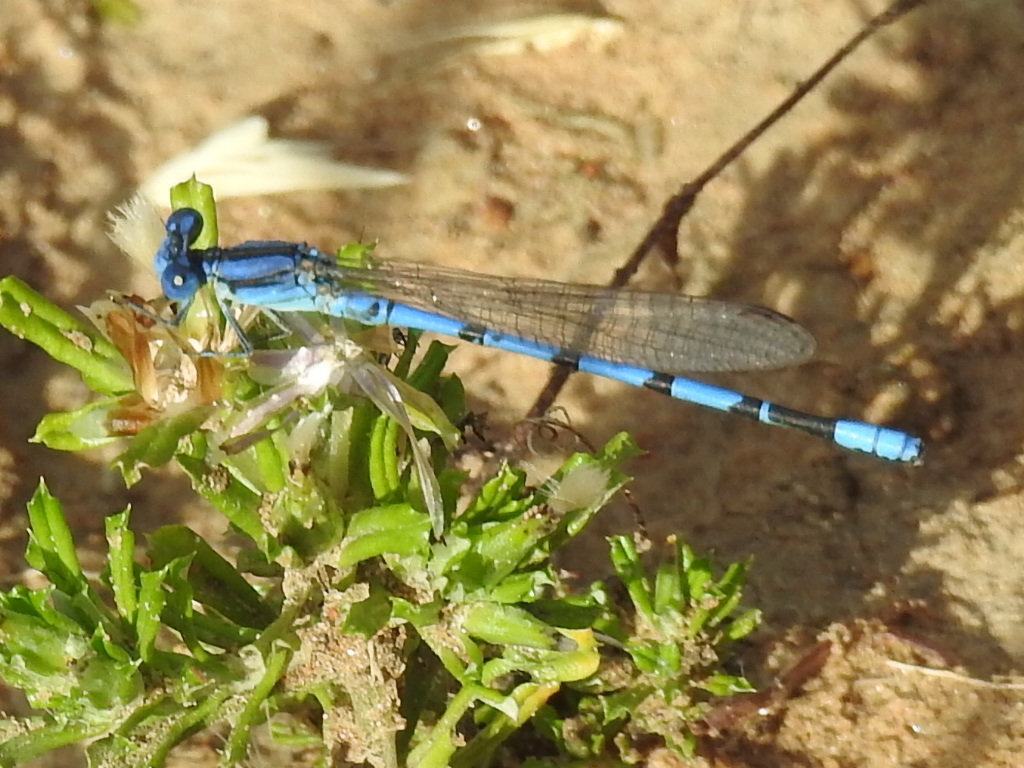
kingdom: Animalia
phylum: Arthropoda
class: Insecta
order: Odonata
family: Coenagrionidae
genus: Argia
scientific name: Argia nahuana
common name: Aztec dancer
